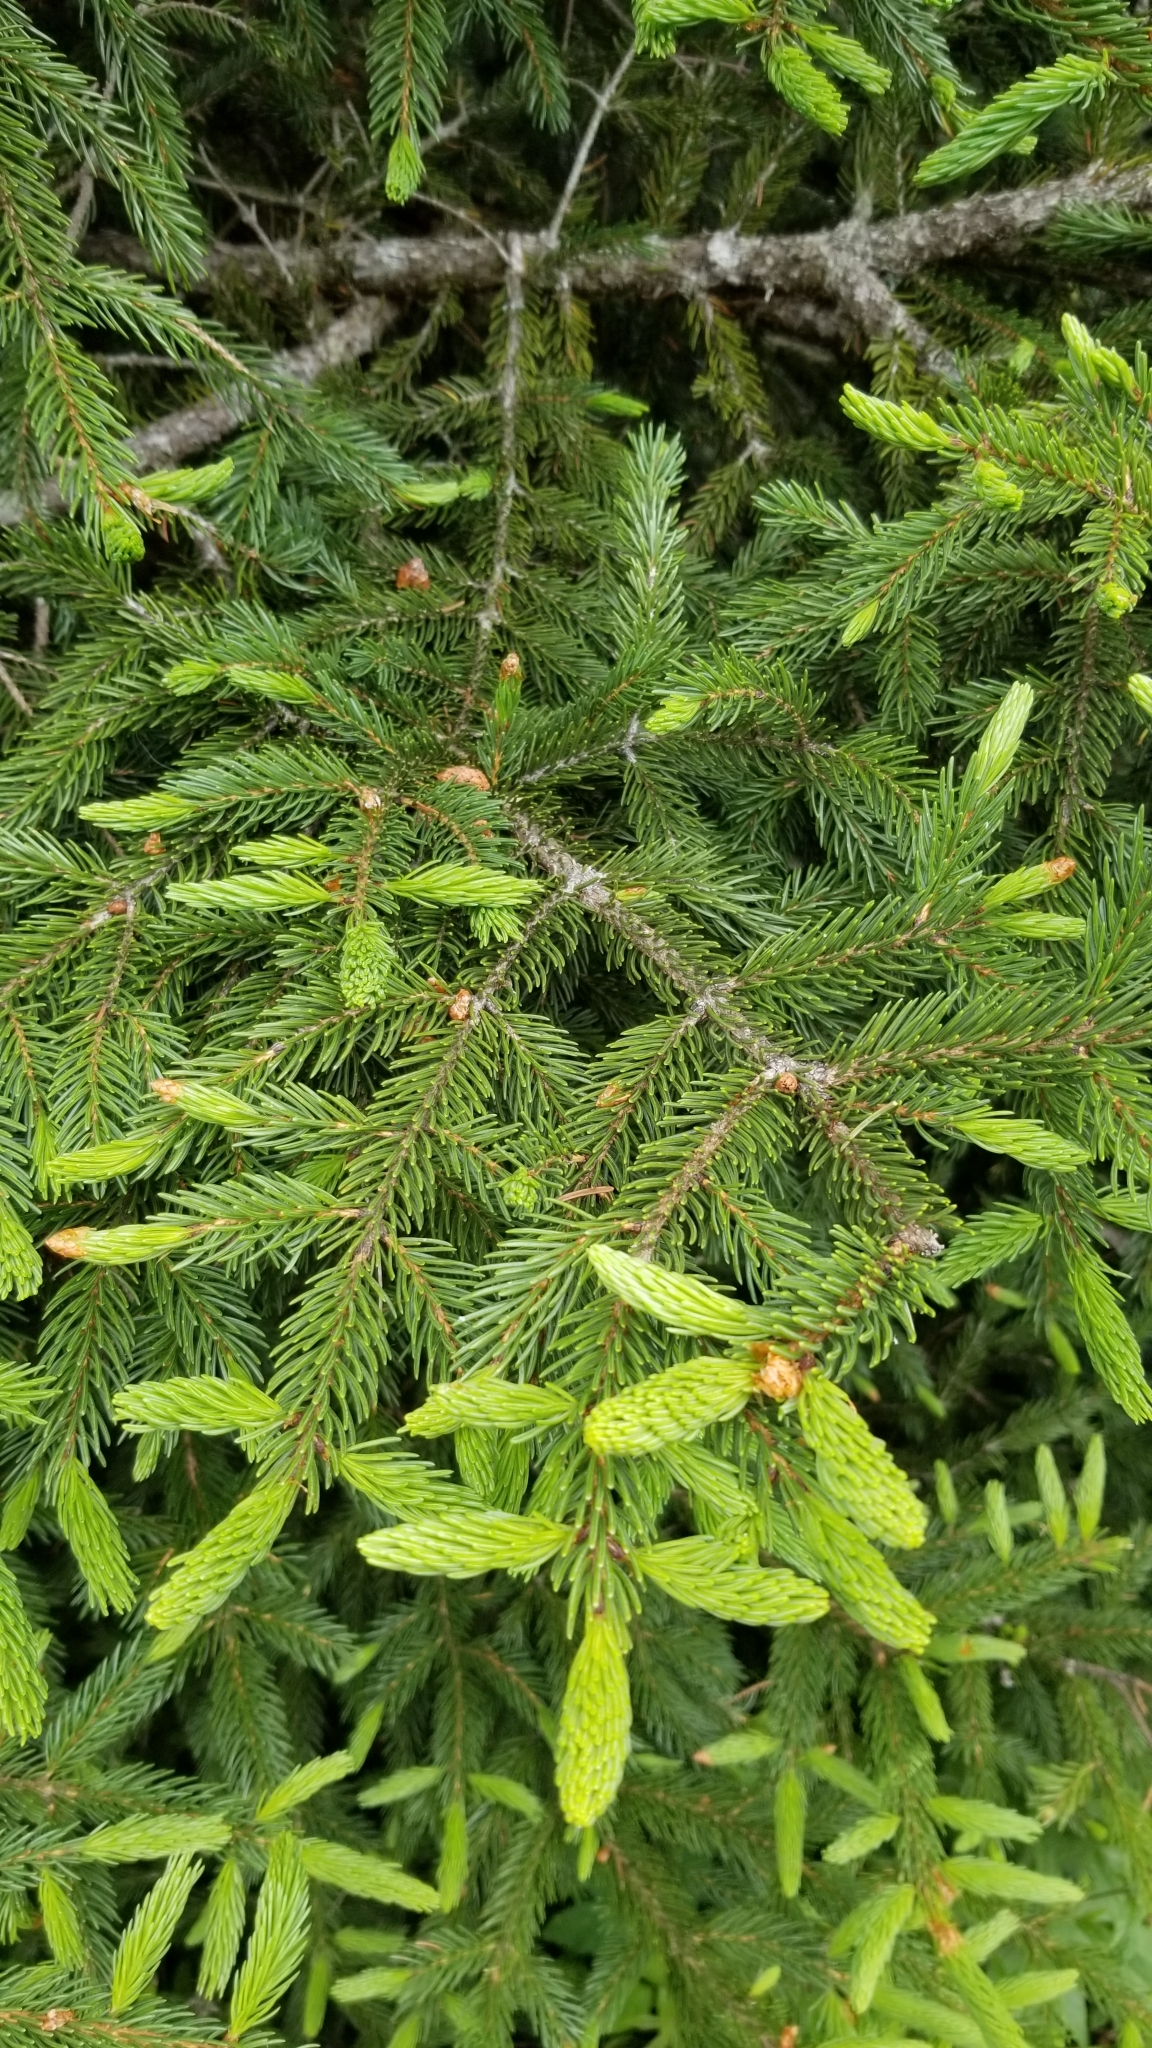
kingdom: Plantae
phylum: Tracheophyta
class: Pinopsida
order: Pinales
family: Pinaceae
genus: Picea
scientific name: Picea rubens
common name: Red spruce
